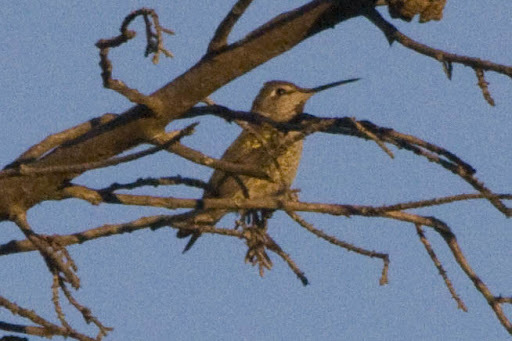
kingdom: Animalia
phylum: Chordata
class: Aves
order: Apodiformes
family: Trochilidae
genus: Calypte
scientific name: Calypte anna
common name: Anna's hummingbird
